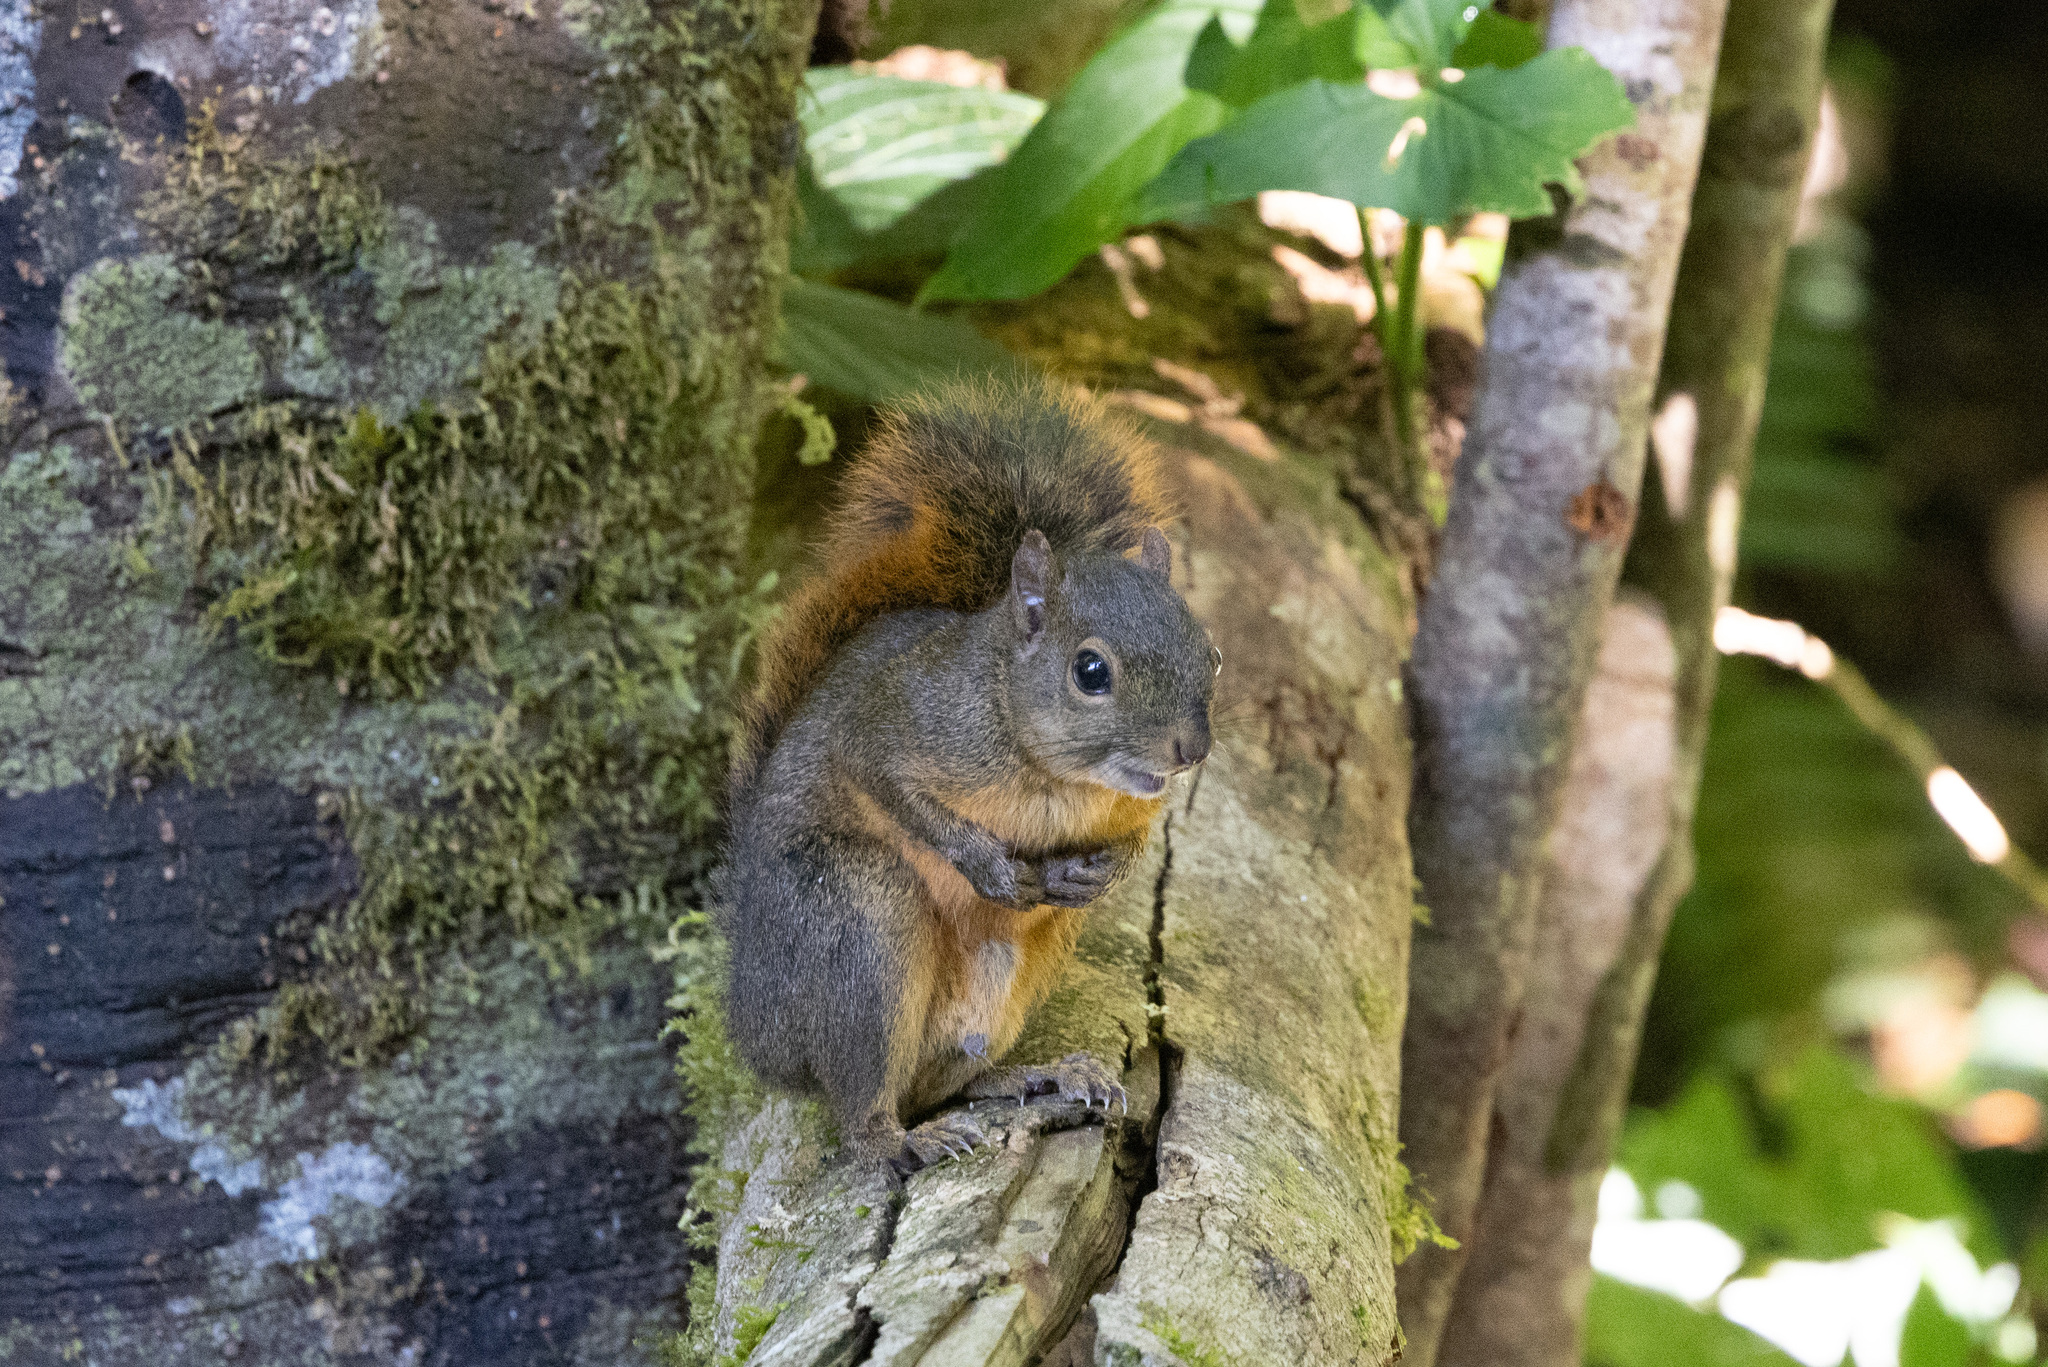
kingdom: Animalia
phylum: Chordata
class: Mammalia
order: Rodentia
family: Sciuridae
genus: Sciurus
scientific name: Sciurus granatensis
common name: Red-tailed squirrel
